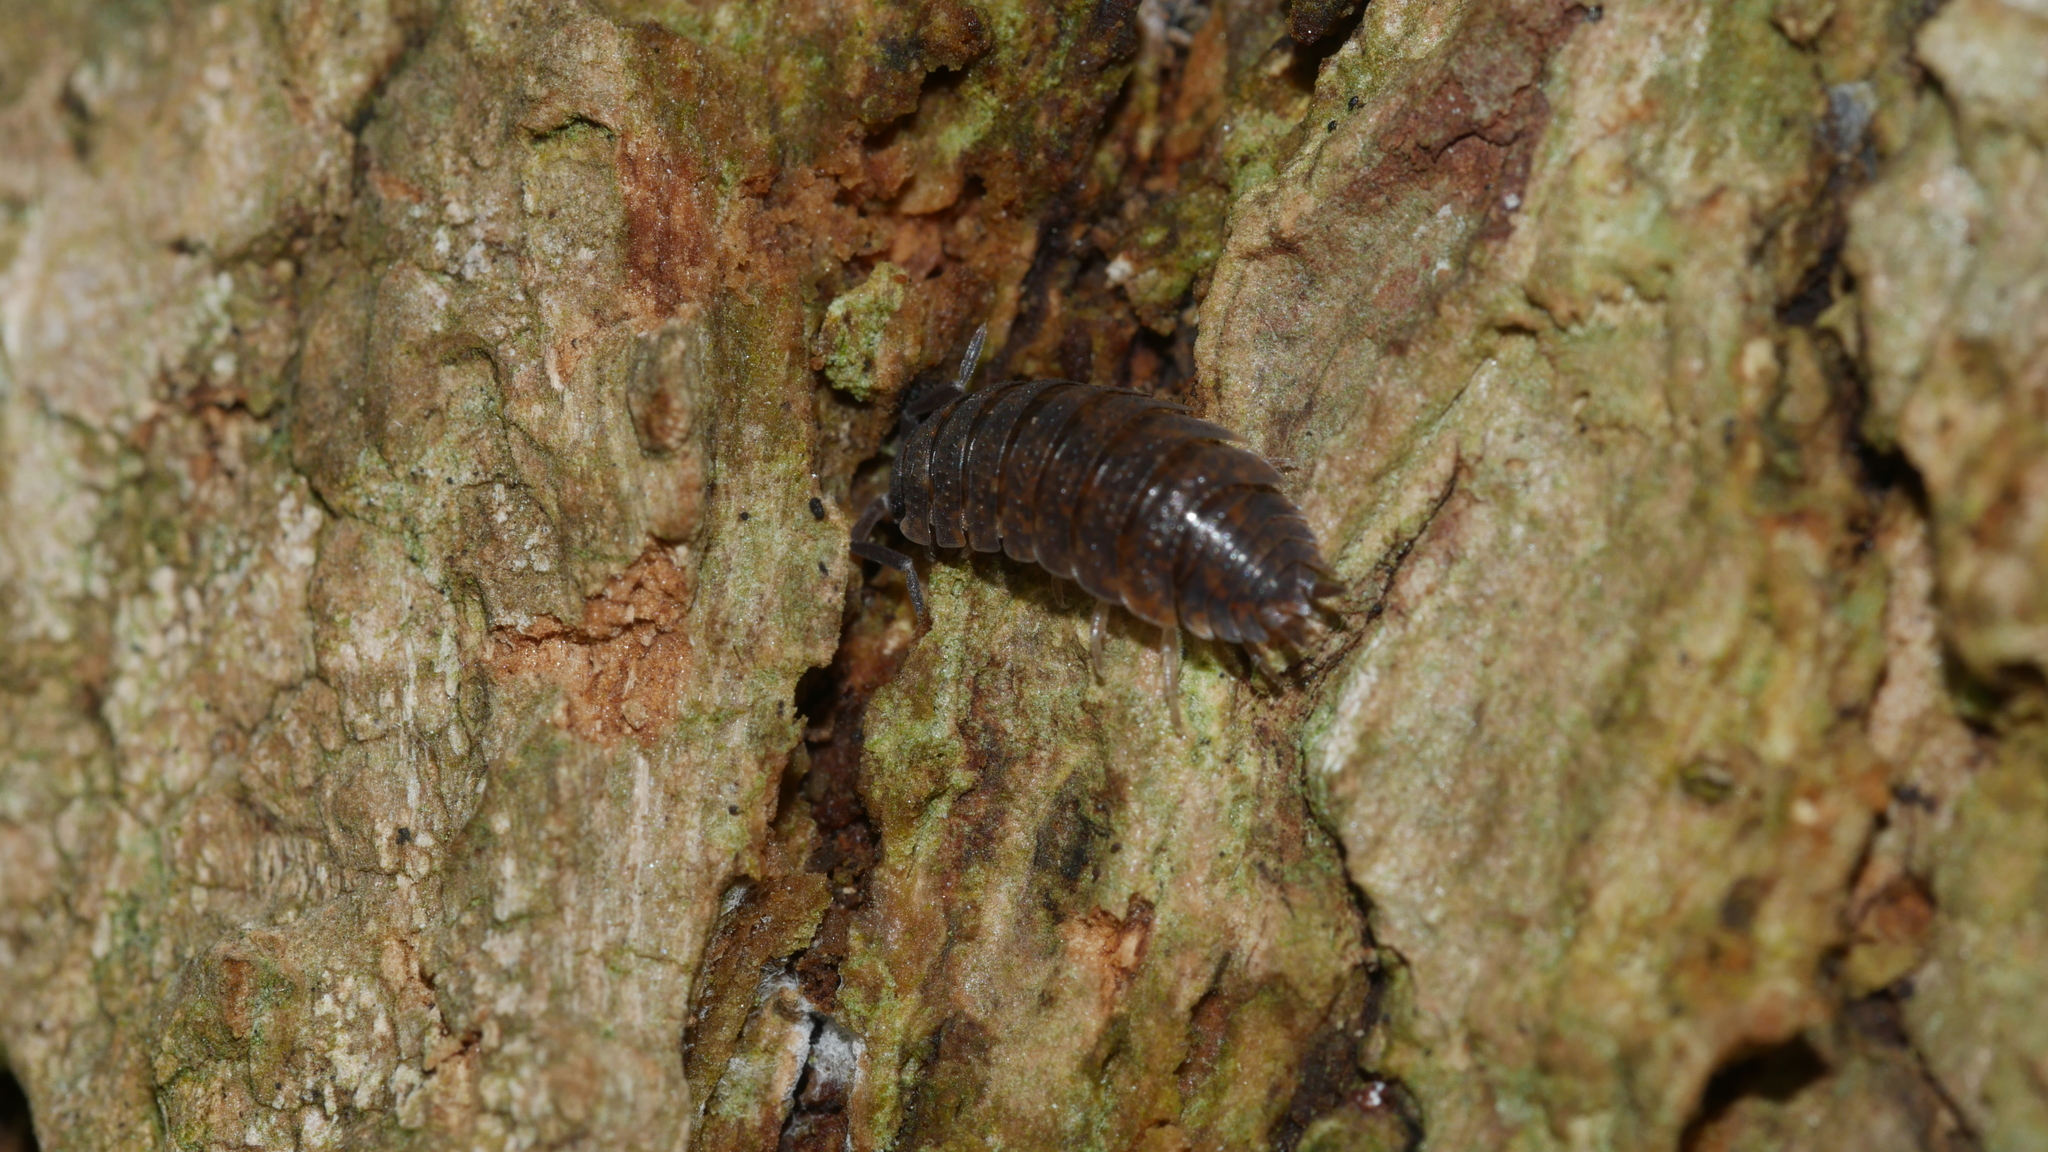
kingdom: Animalia
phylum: Arthropoda
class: Malacostraca
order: Isopoda
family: Porcellionidae
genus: Porcellio
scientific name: Porcellio scaber
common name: Common rough woodlouse
